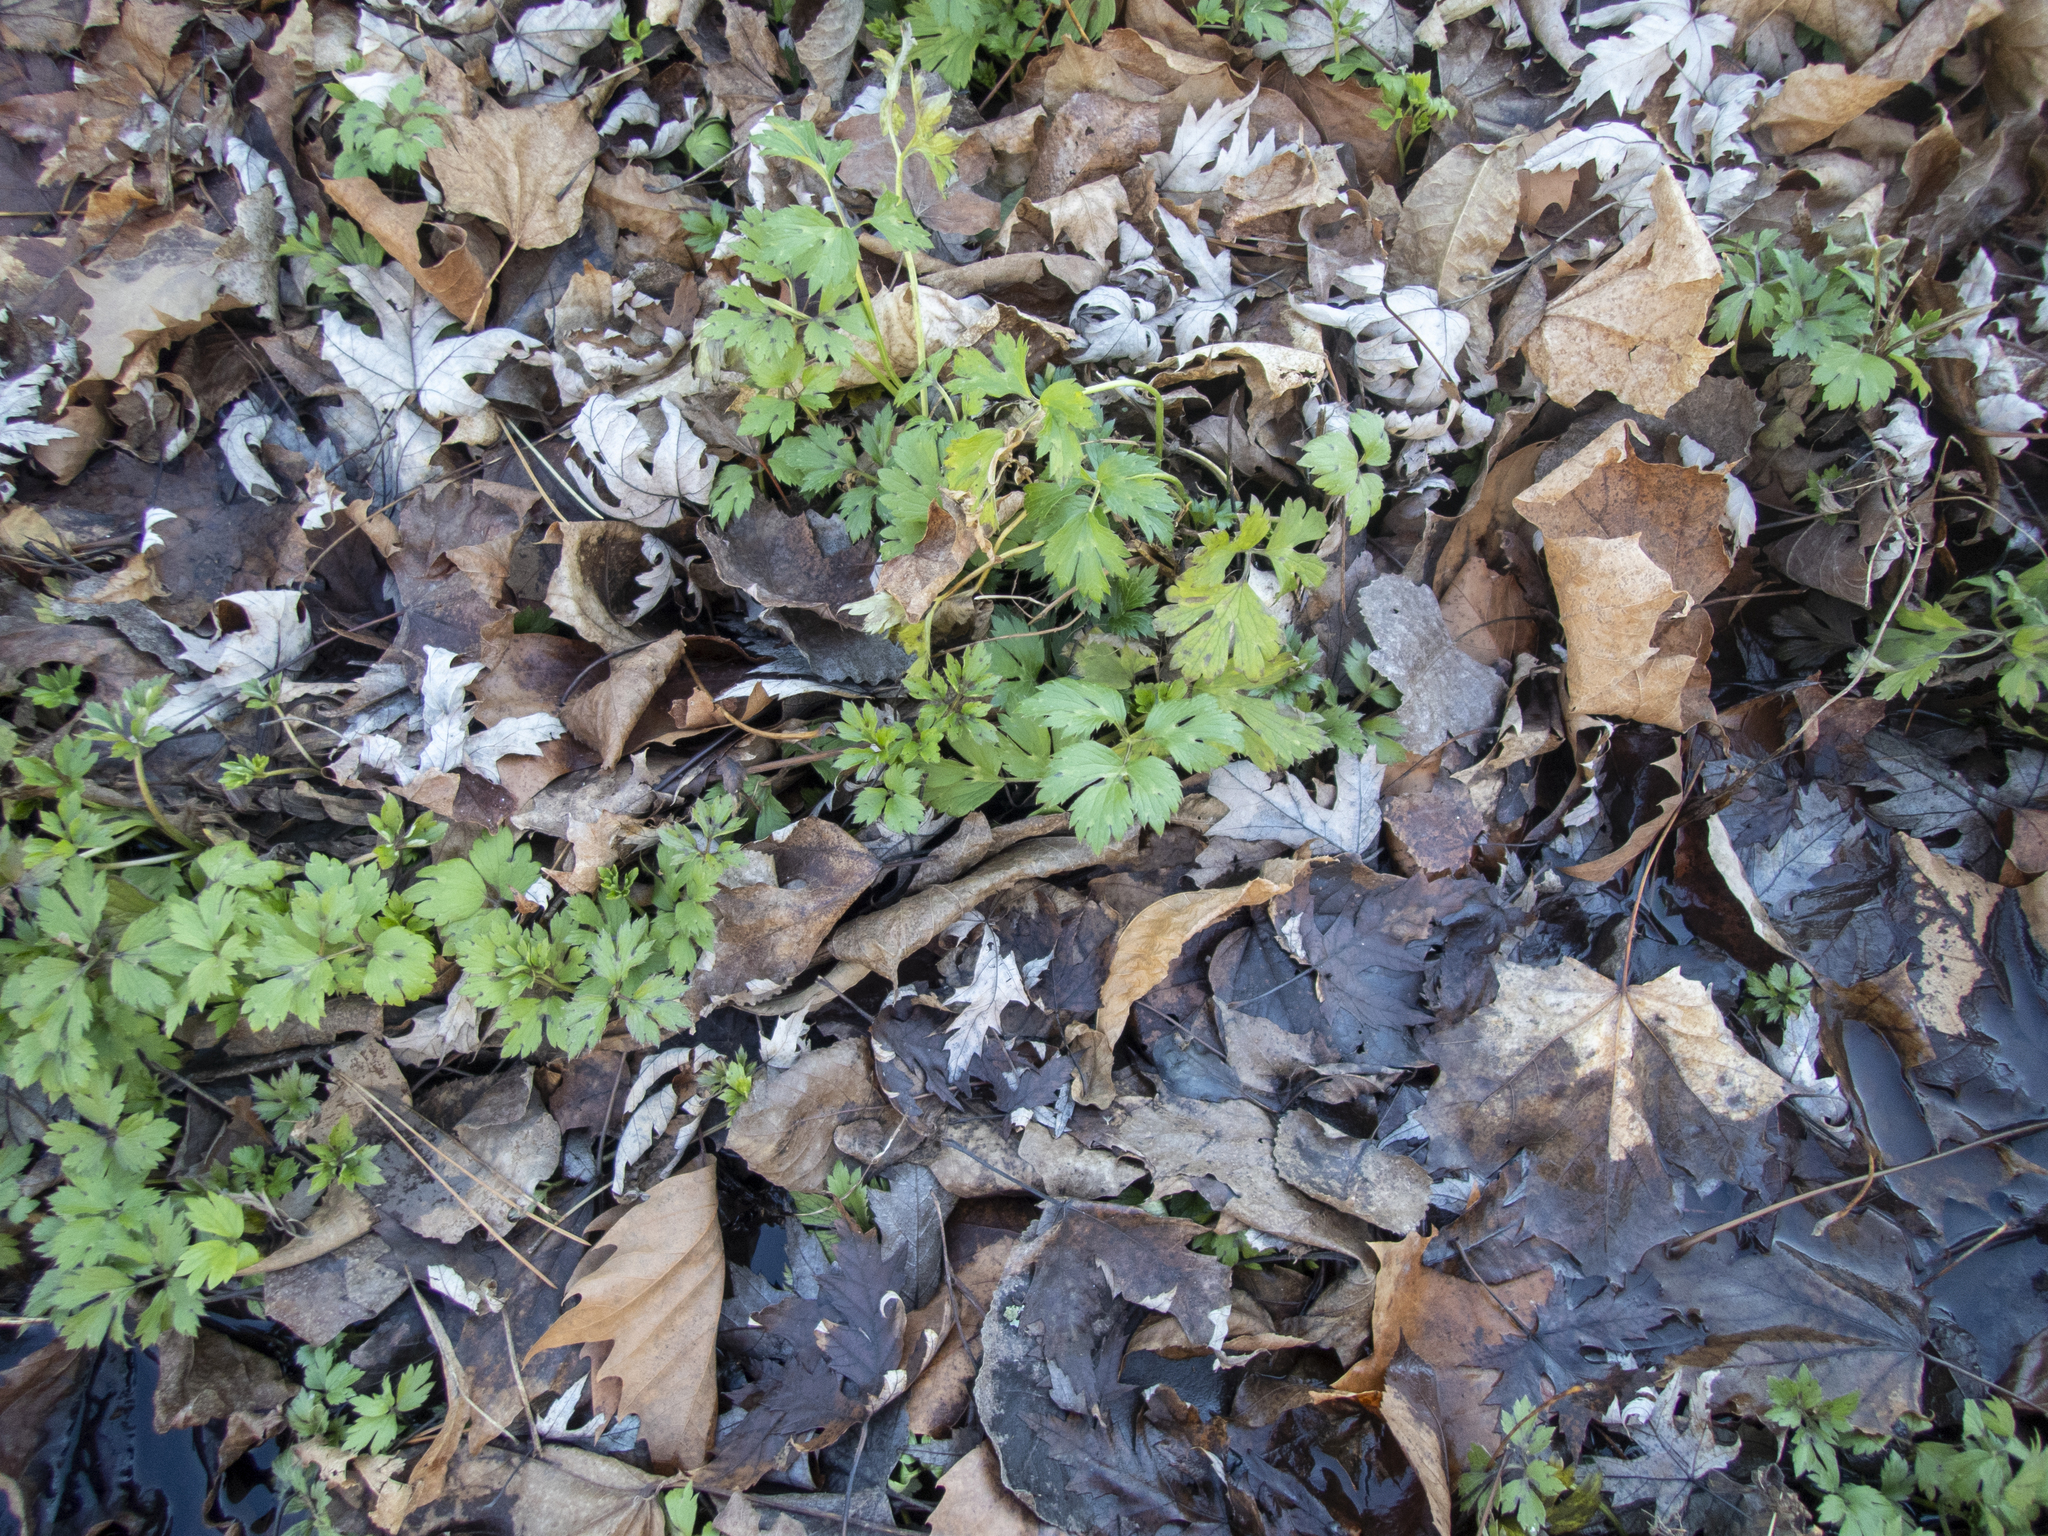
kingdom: Plantae
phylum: Tracheophyta
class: Magnoliopsida
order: Ranunculales
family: Ranunculaceae
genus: Ranunculus
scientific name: Ranunculus repens
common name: Creeping buttercup
